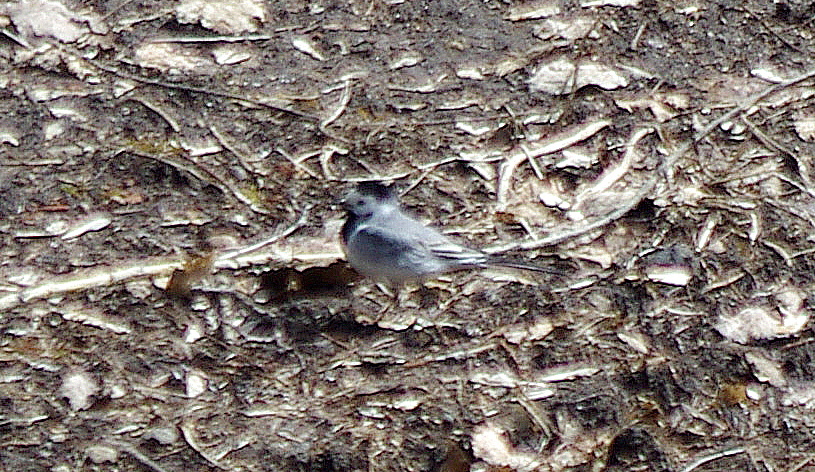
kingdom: Animalia
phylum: Chordata
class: Aves
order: Passeriformes
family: Motacillidae
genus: Motacilla
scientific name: Motacilla alba
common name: White wagtail
